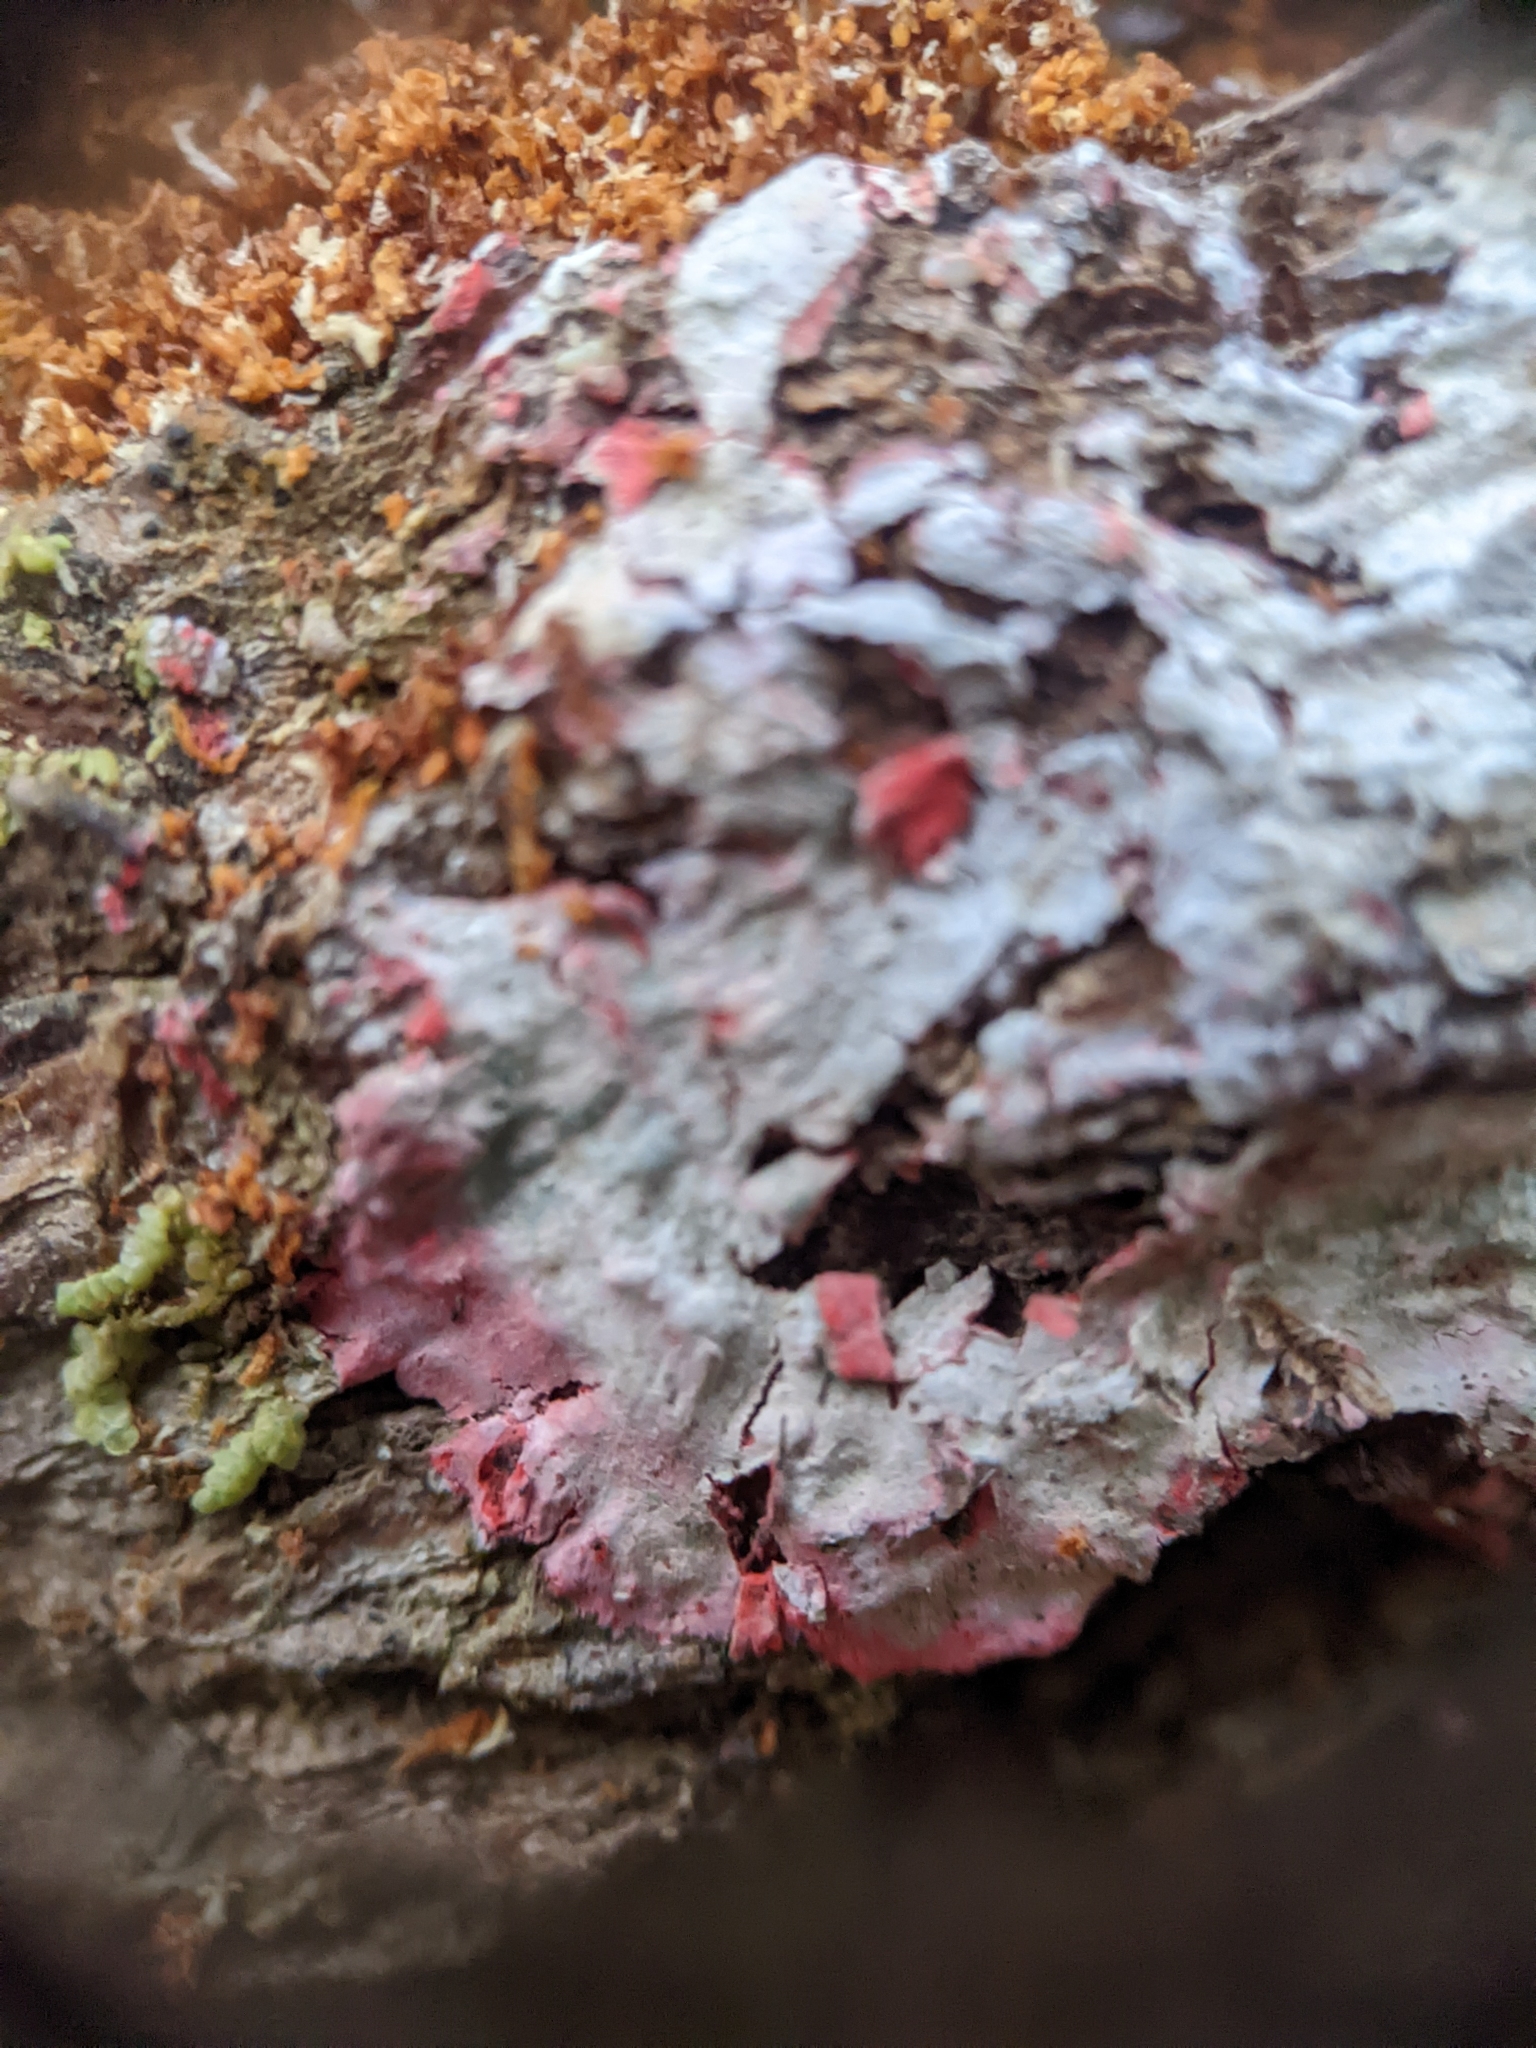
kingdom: Fungi
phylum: Ascomycota
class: Arthoniomycetes
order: Arthoniales
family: Arthoniaceae
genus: Herpothallon
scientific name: Herpothallon rubrocinctum
